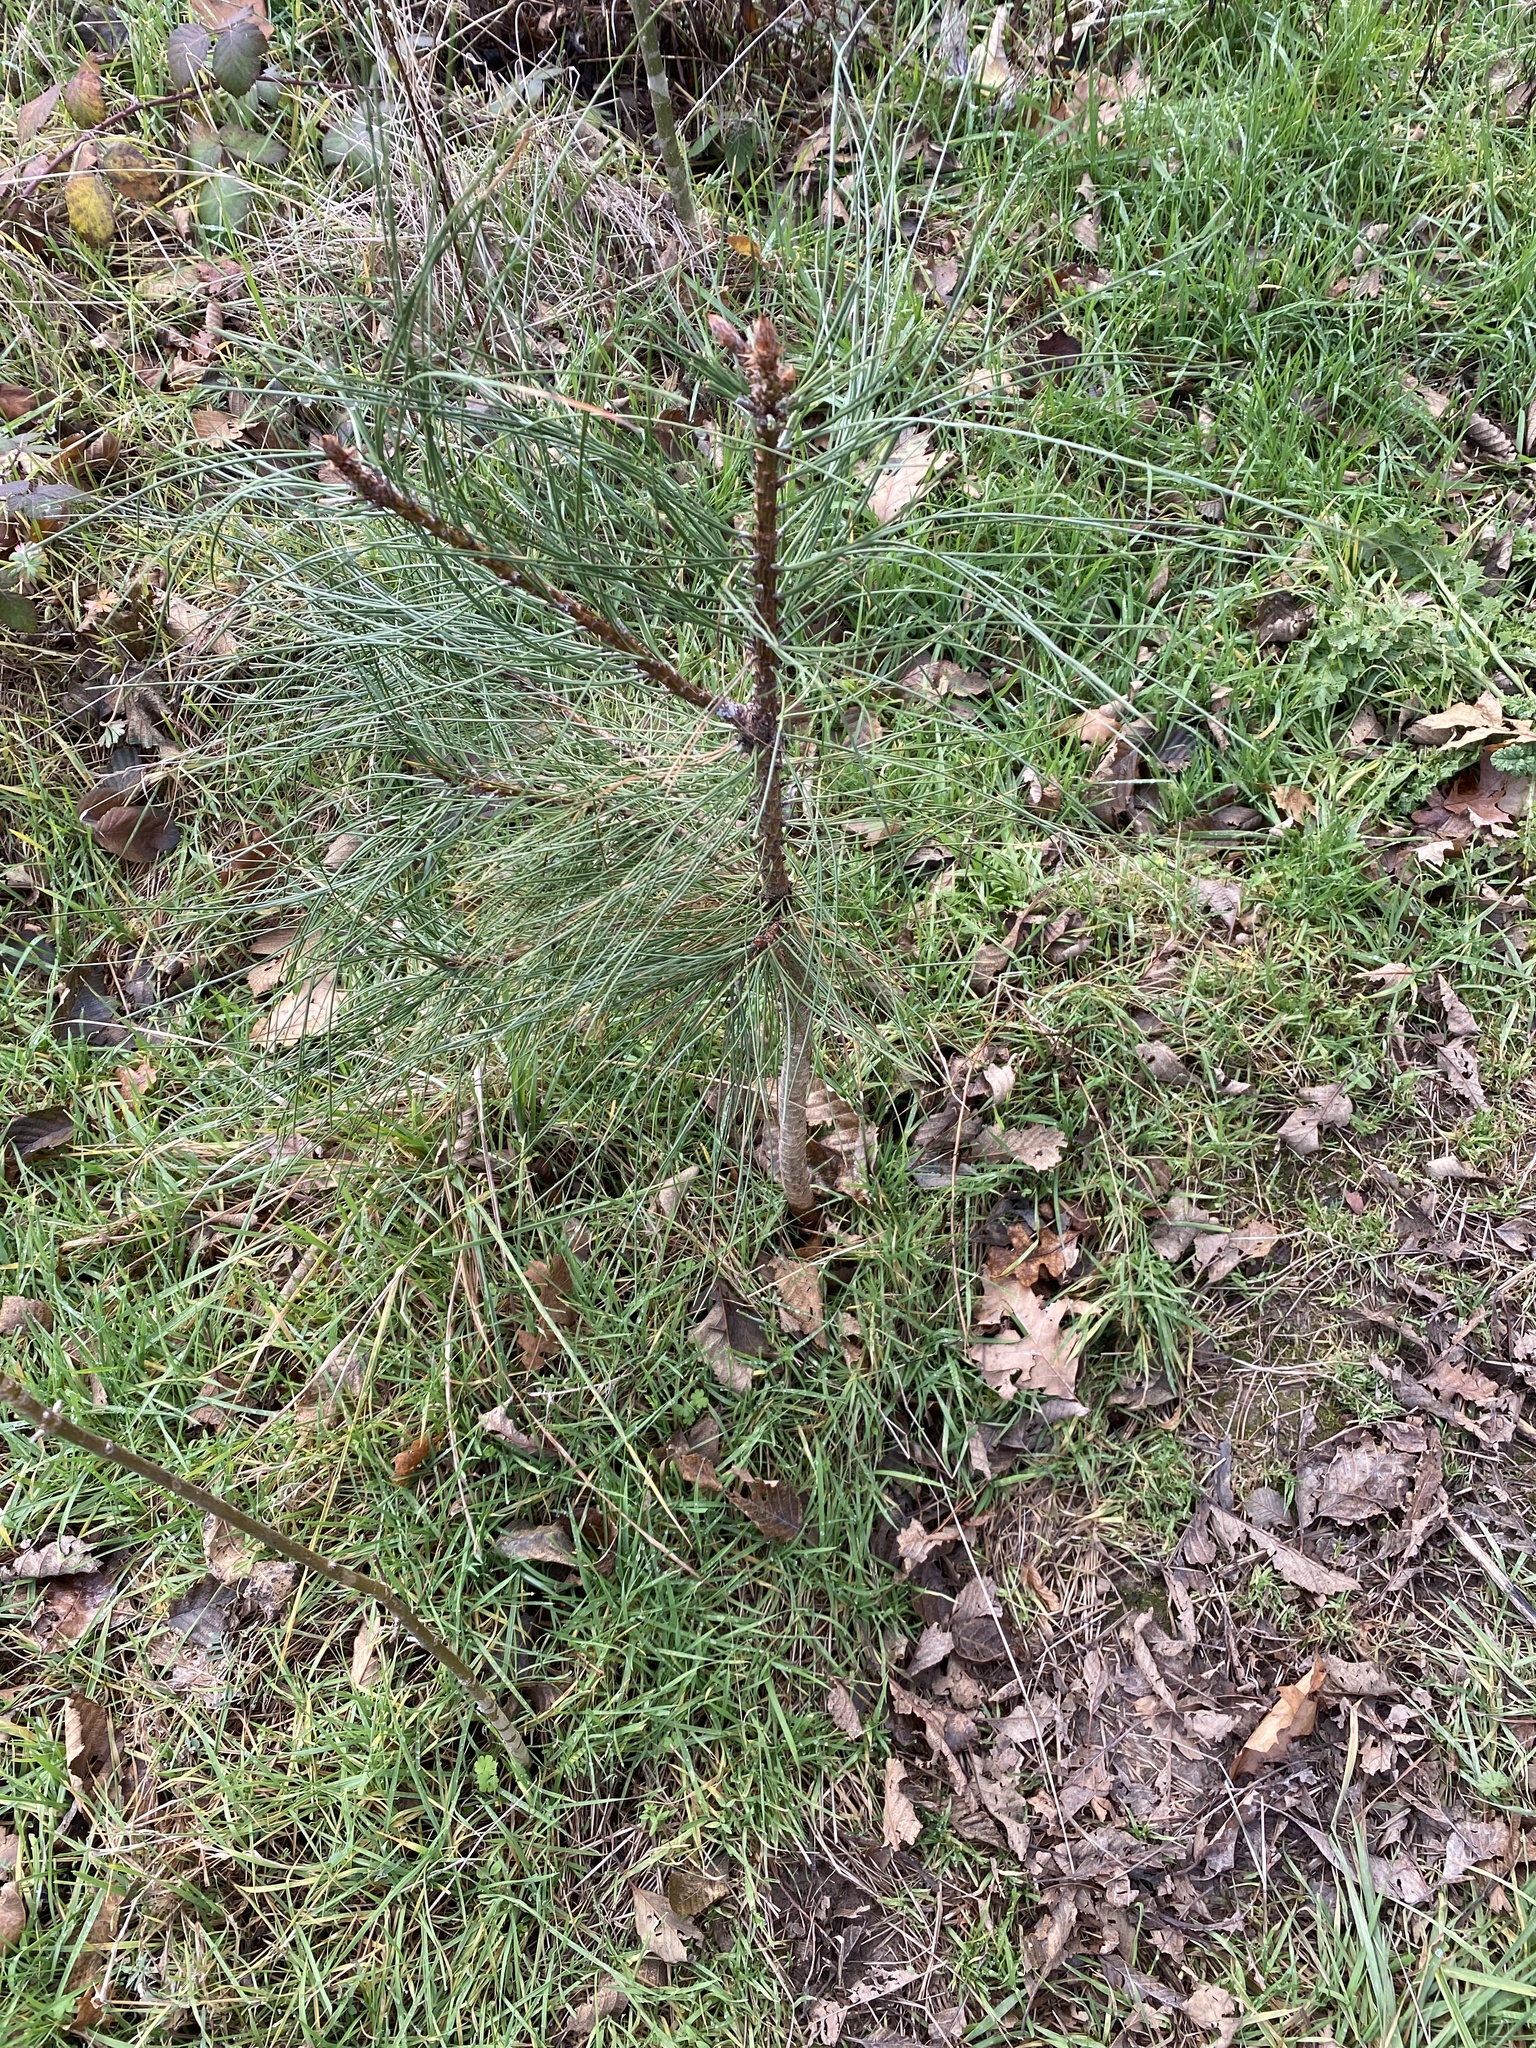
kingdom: Plantae
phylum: Tracheophyta
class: Pinopsida
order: Pinales
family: Pinaceae
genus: Pinus
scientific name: Pinus ponderosa
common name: Western yellow-pine
